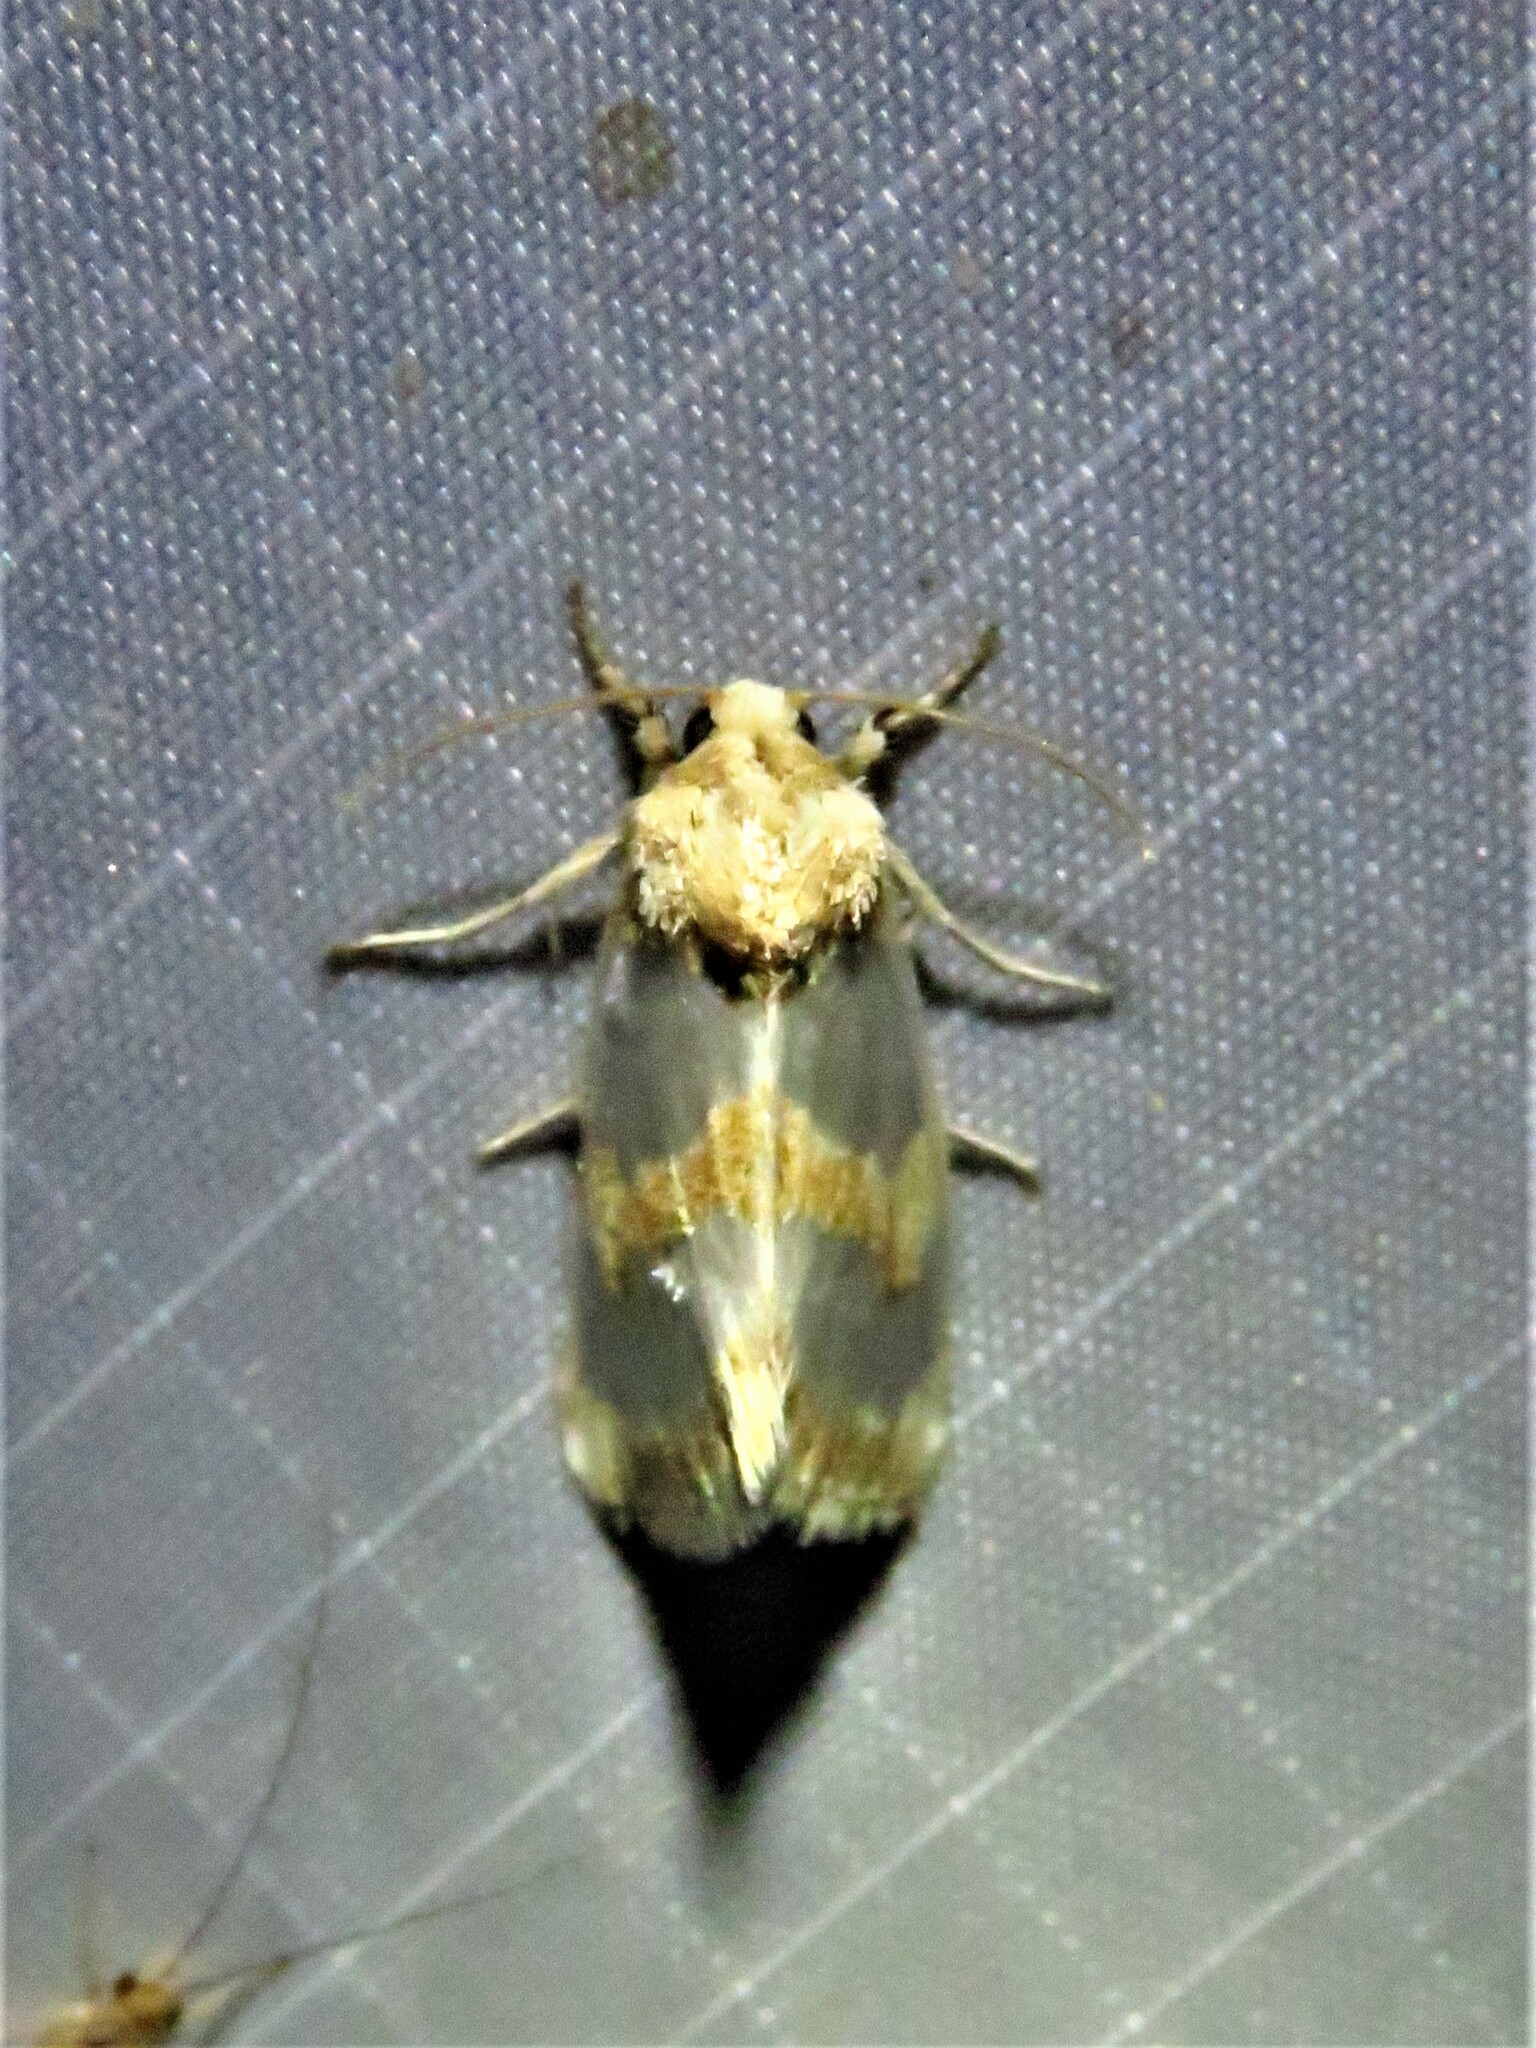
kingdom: Animalia
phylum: Arthropoda
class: Insecta
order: Lepidoptera
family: Noctuidae
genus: Schinia
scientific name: Schinia chrysellus
